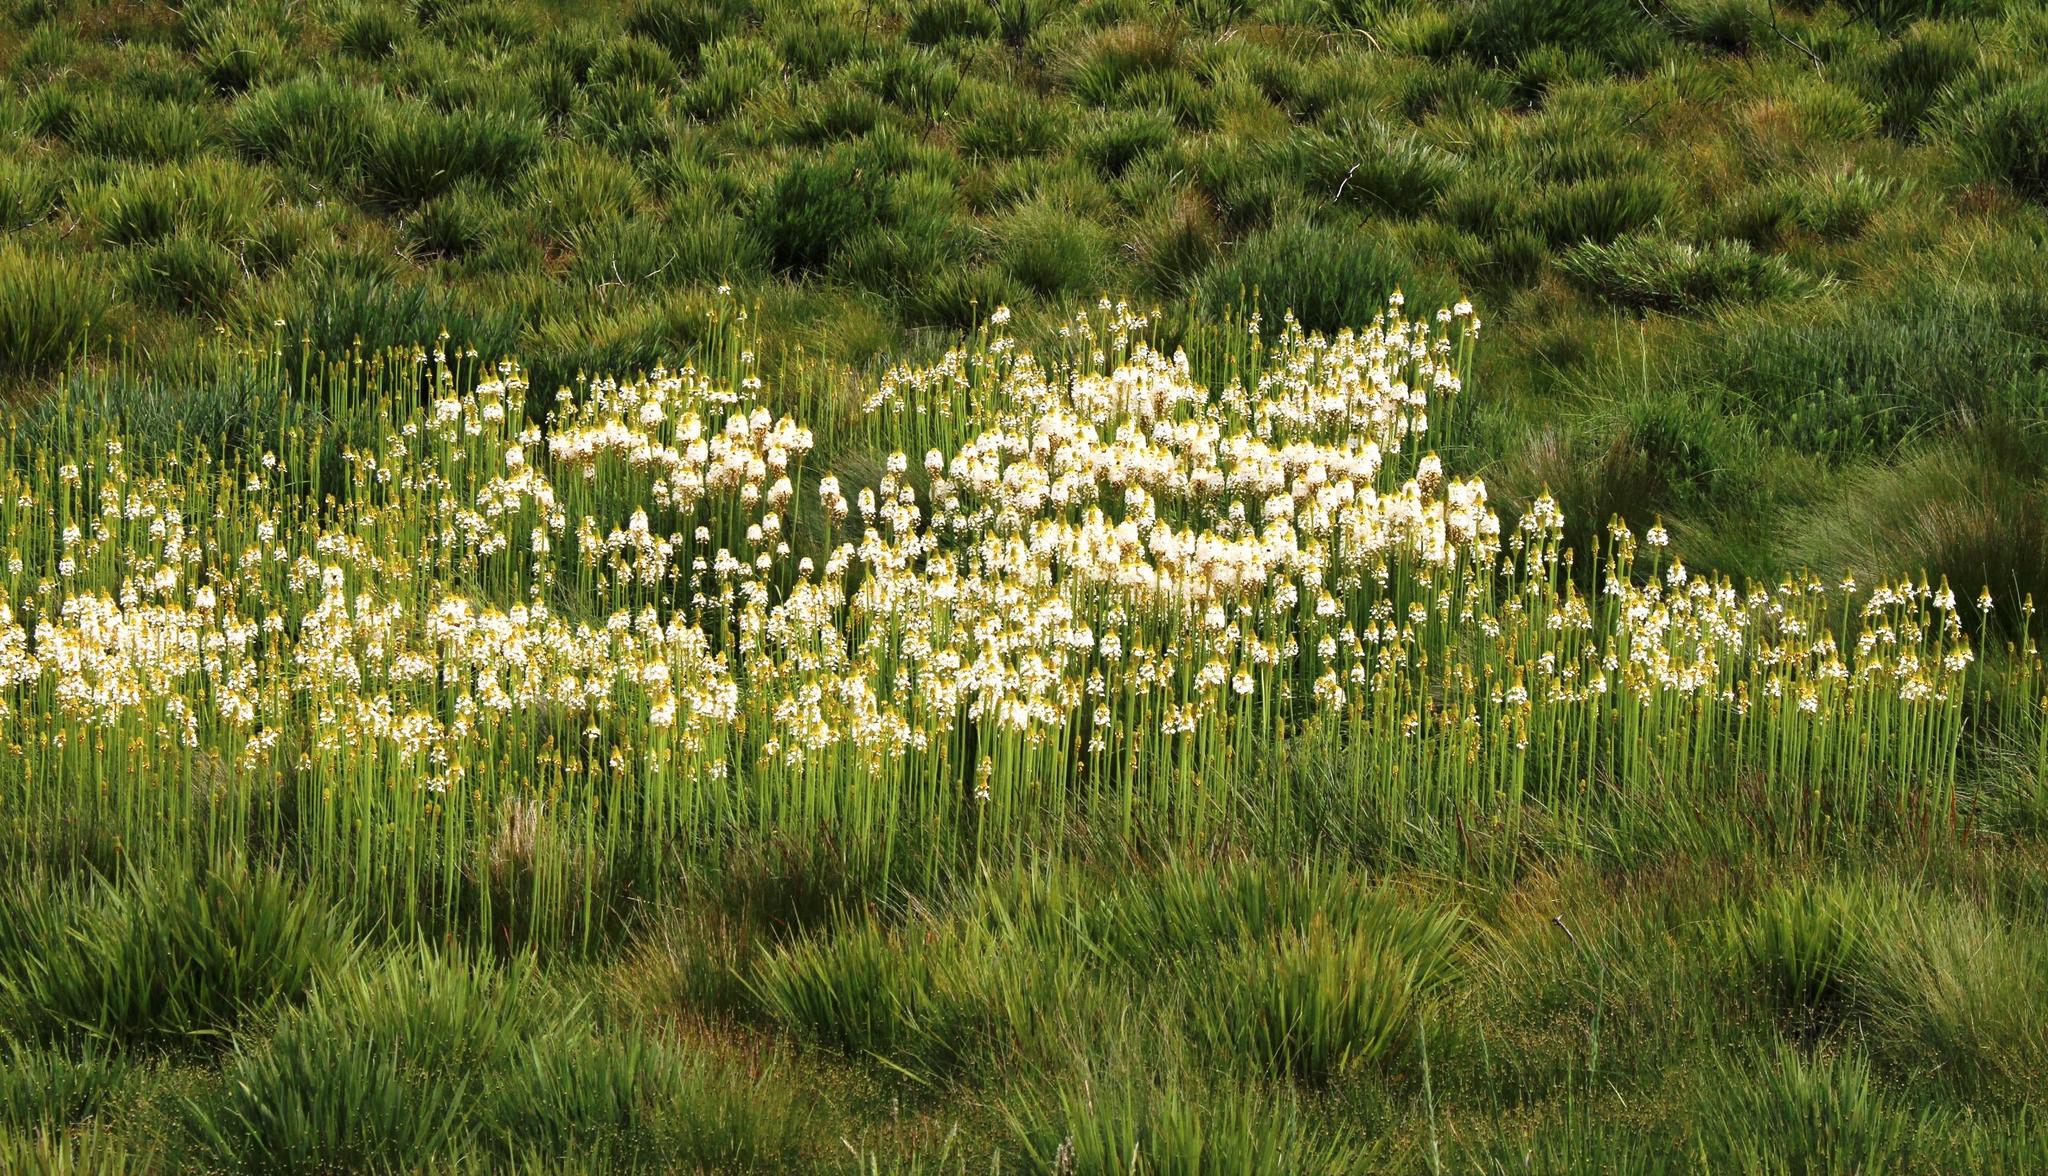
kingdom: Plantae
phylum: Tracheophyta
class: Liliopsida
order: Asparagales
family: Asphodelaceae
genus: Bulbinella
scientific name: Bulbinella nutans
